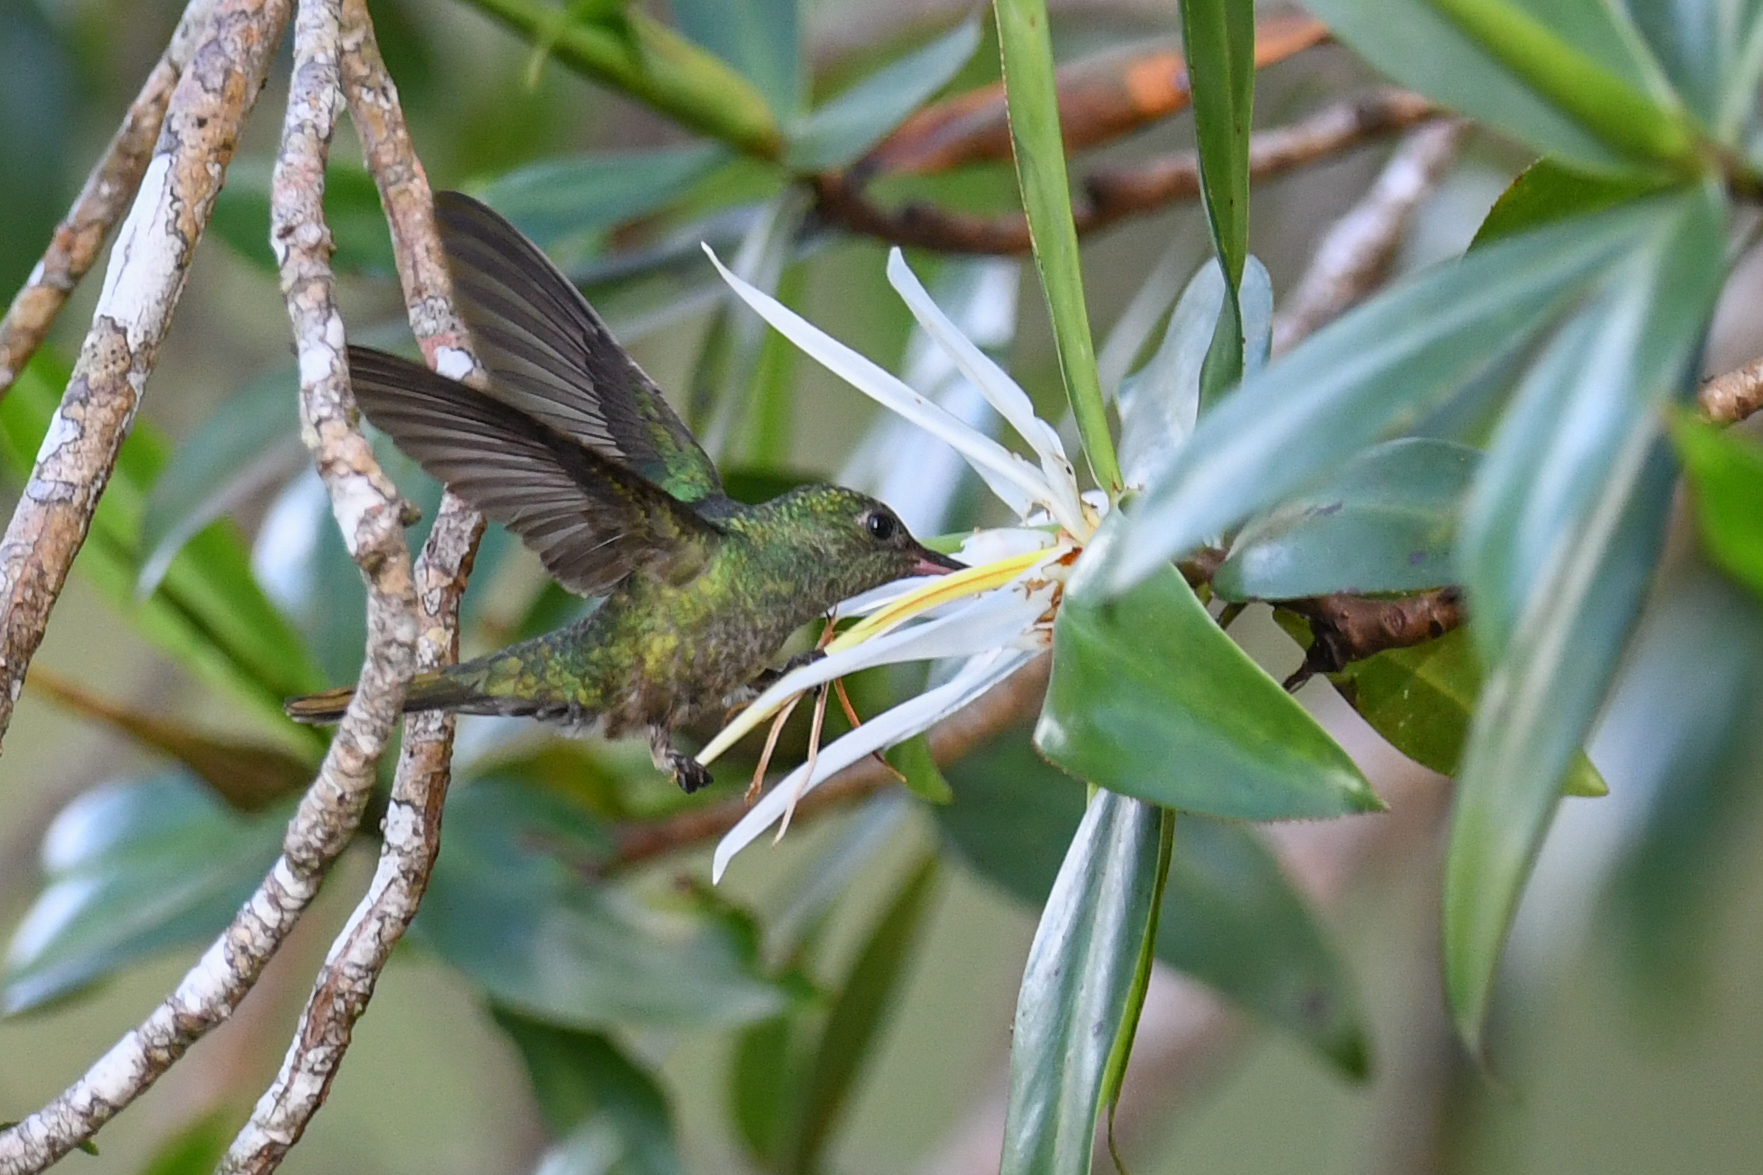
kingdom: Animalia
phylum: Chordata
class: Aves
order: Apodiformes
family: Trochilidae
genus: Phaeochroa
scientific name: Phaeochroa cuvierii
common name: Scaly-breasted hummingbird
